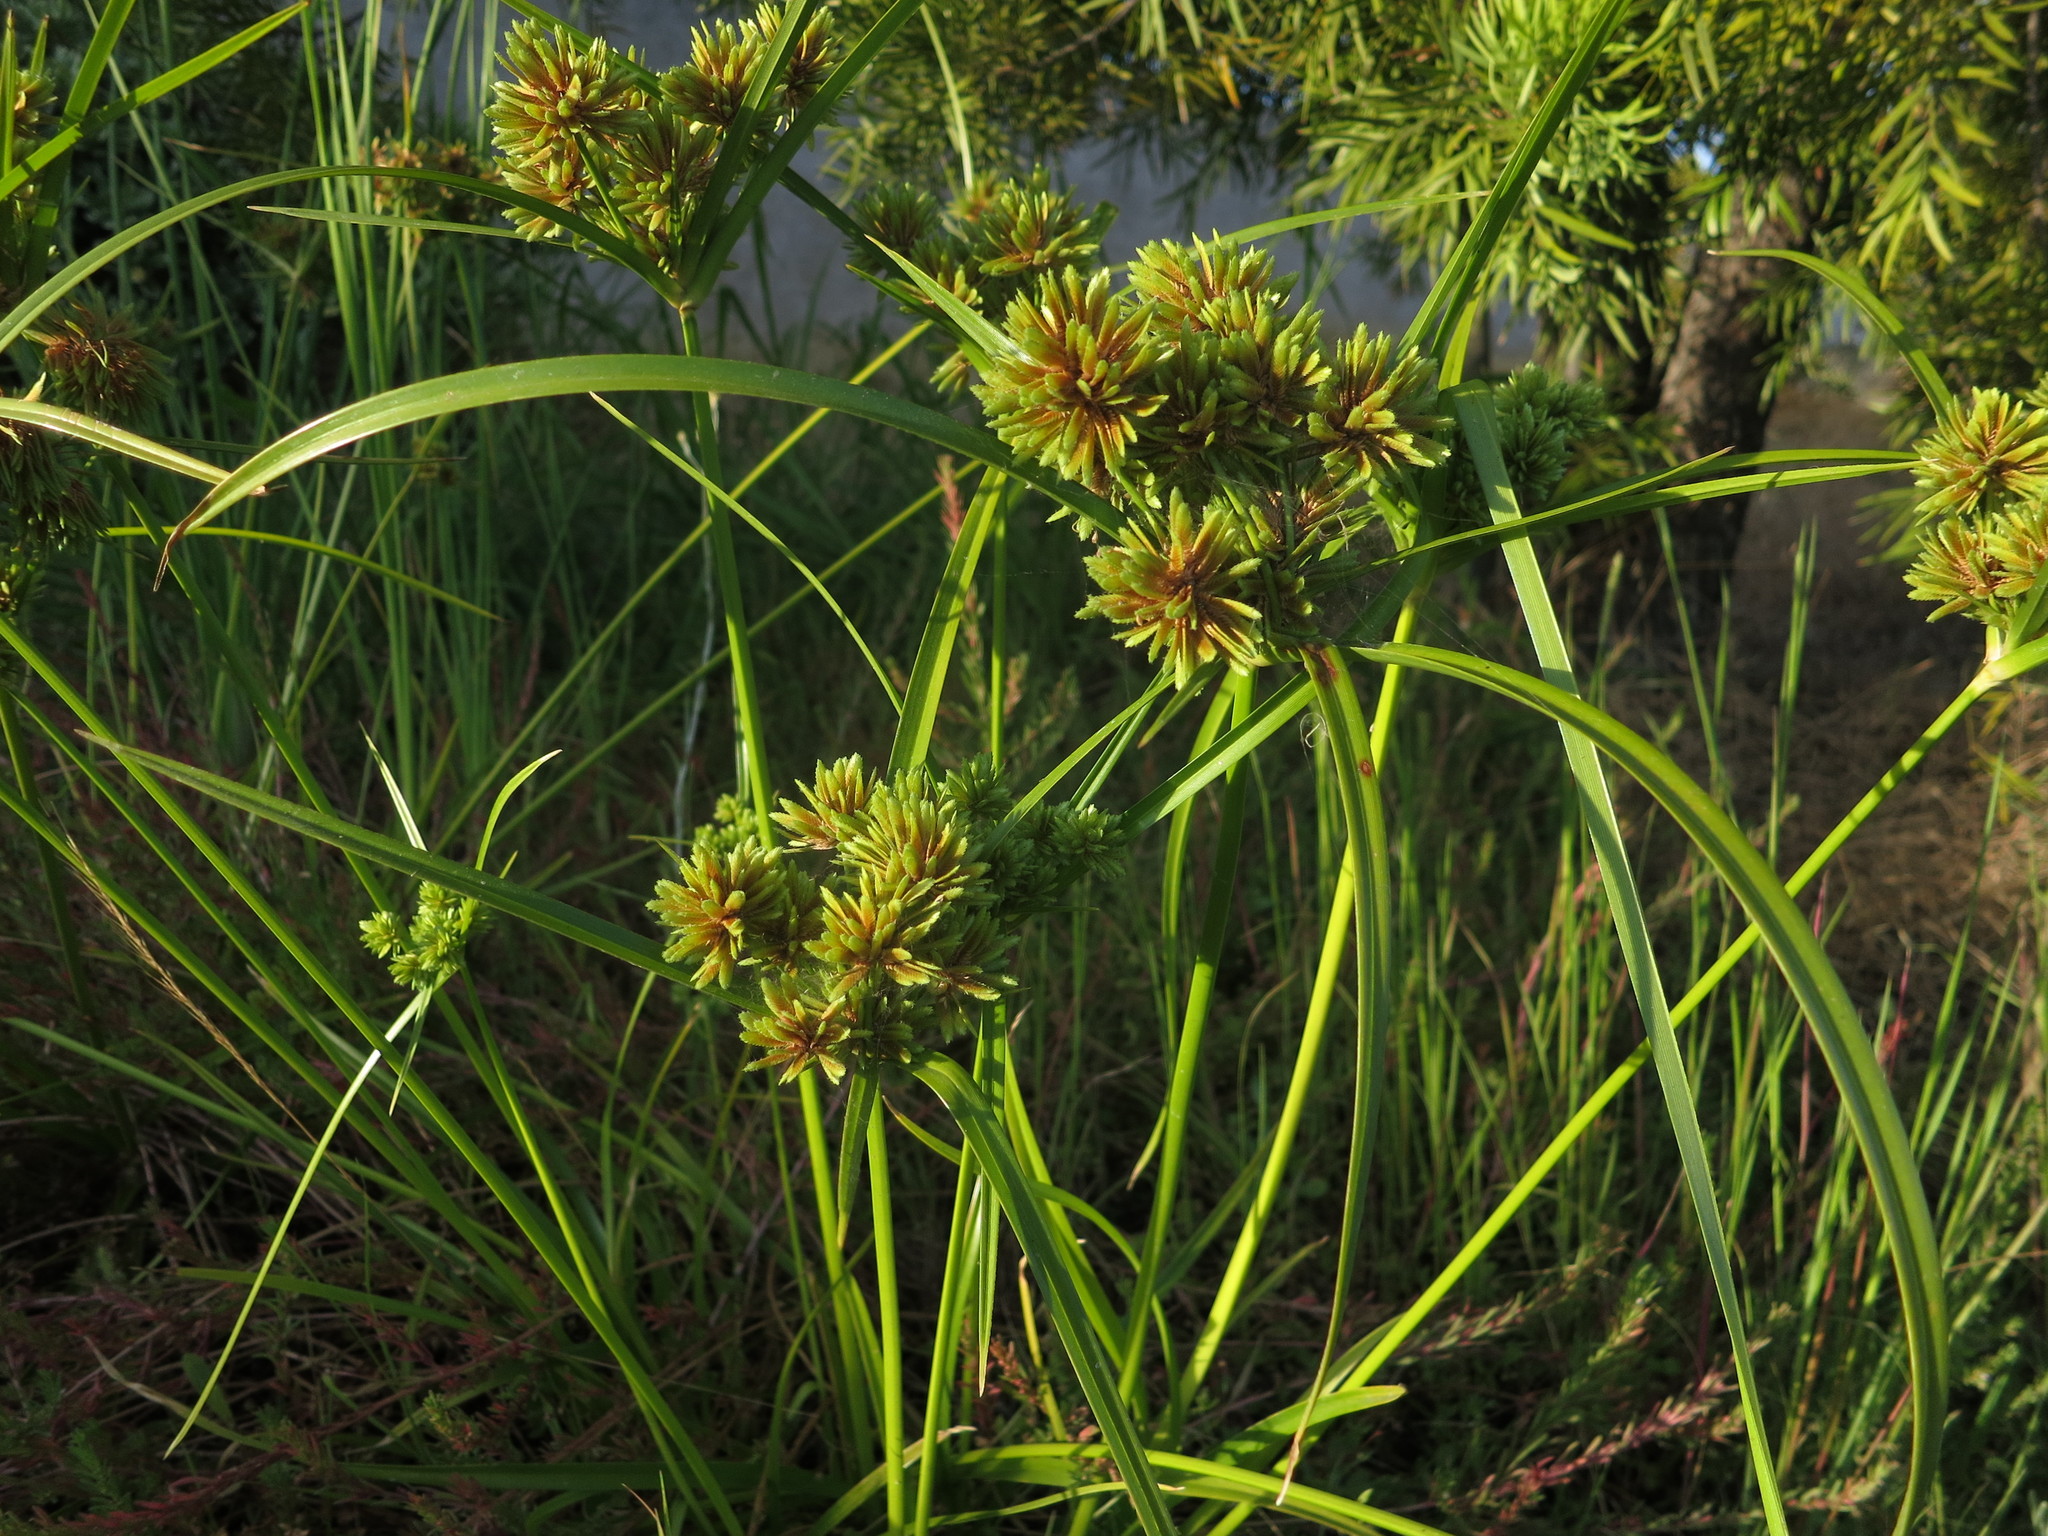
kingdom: Plantae
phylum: Tracheophyta
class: Liliopsida
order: Poales
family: Cyperaceae
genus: Cyperus
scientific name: Cyperus eragrostis
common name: Tall flatsedge
